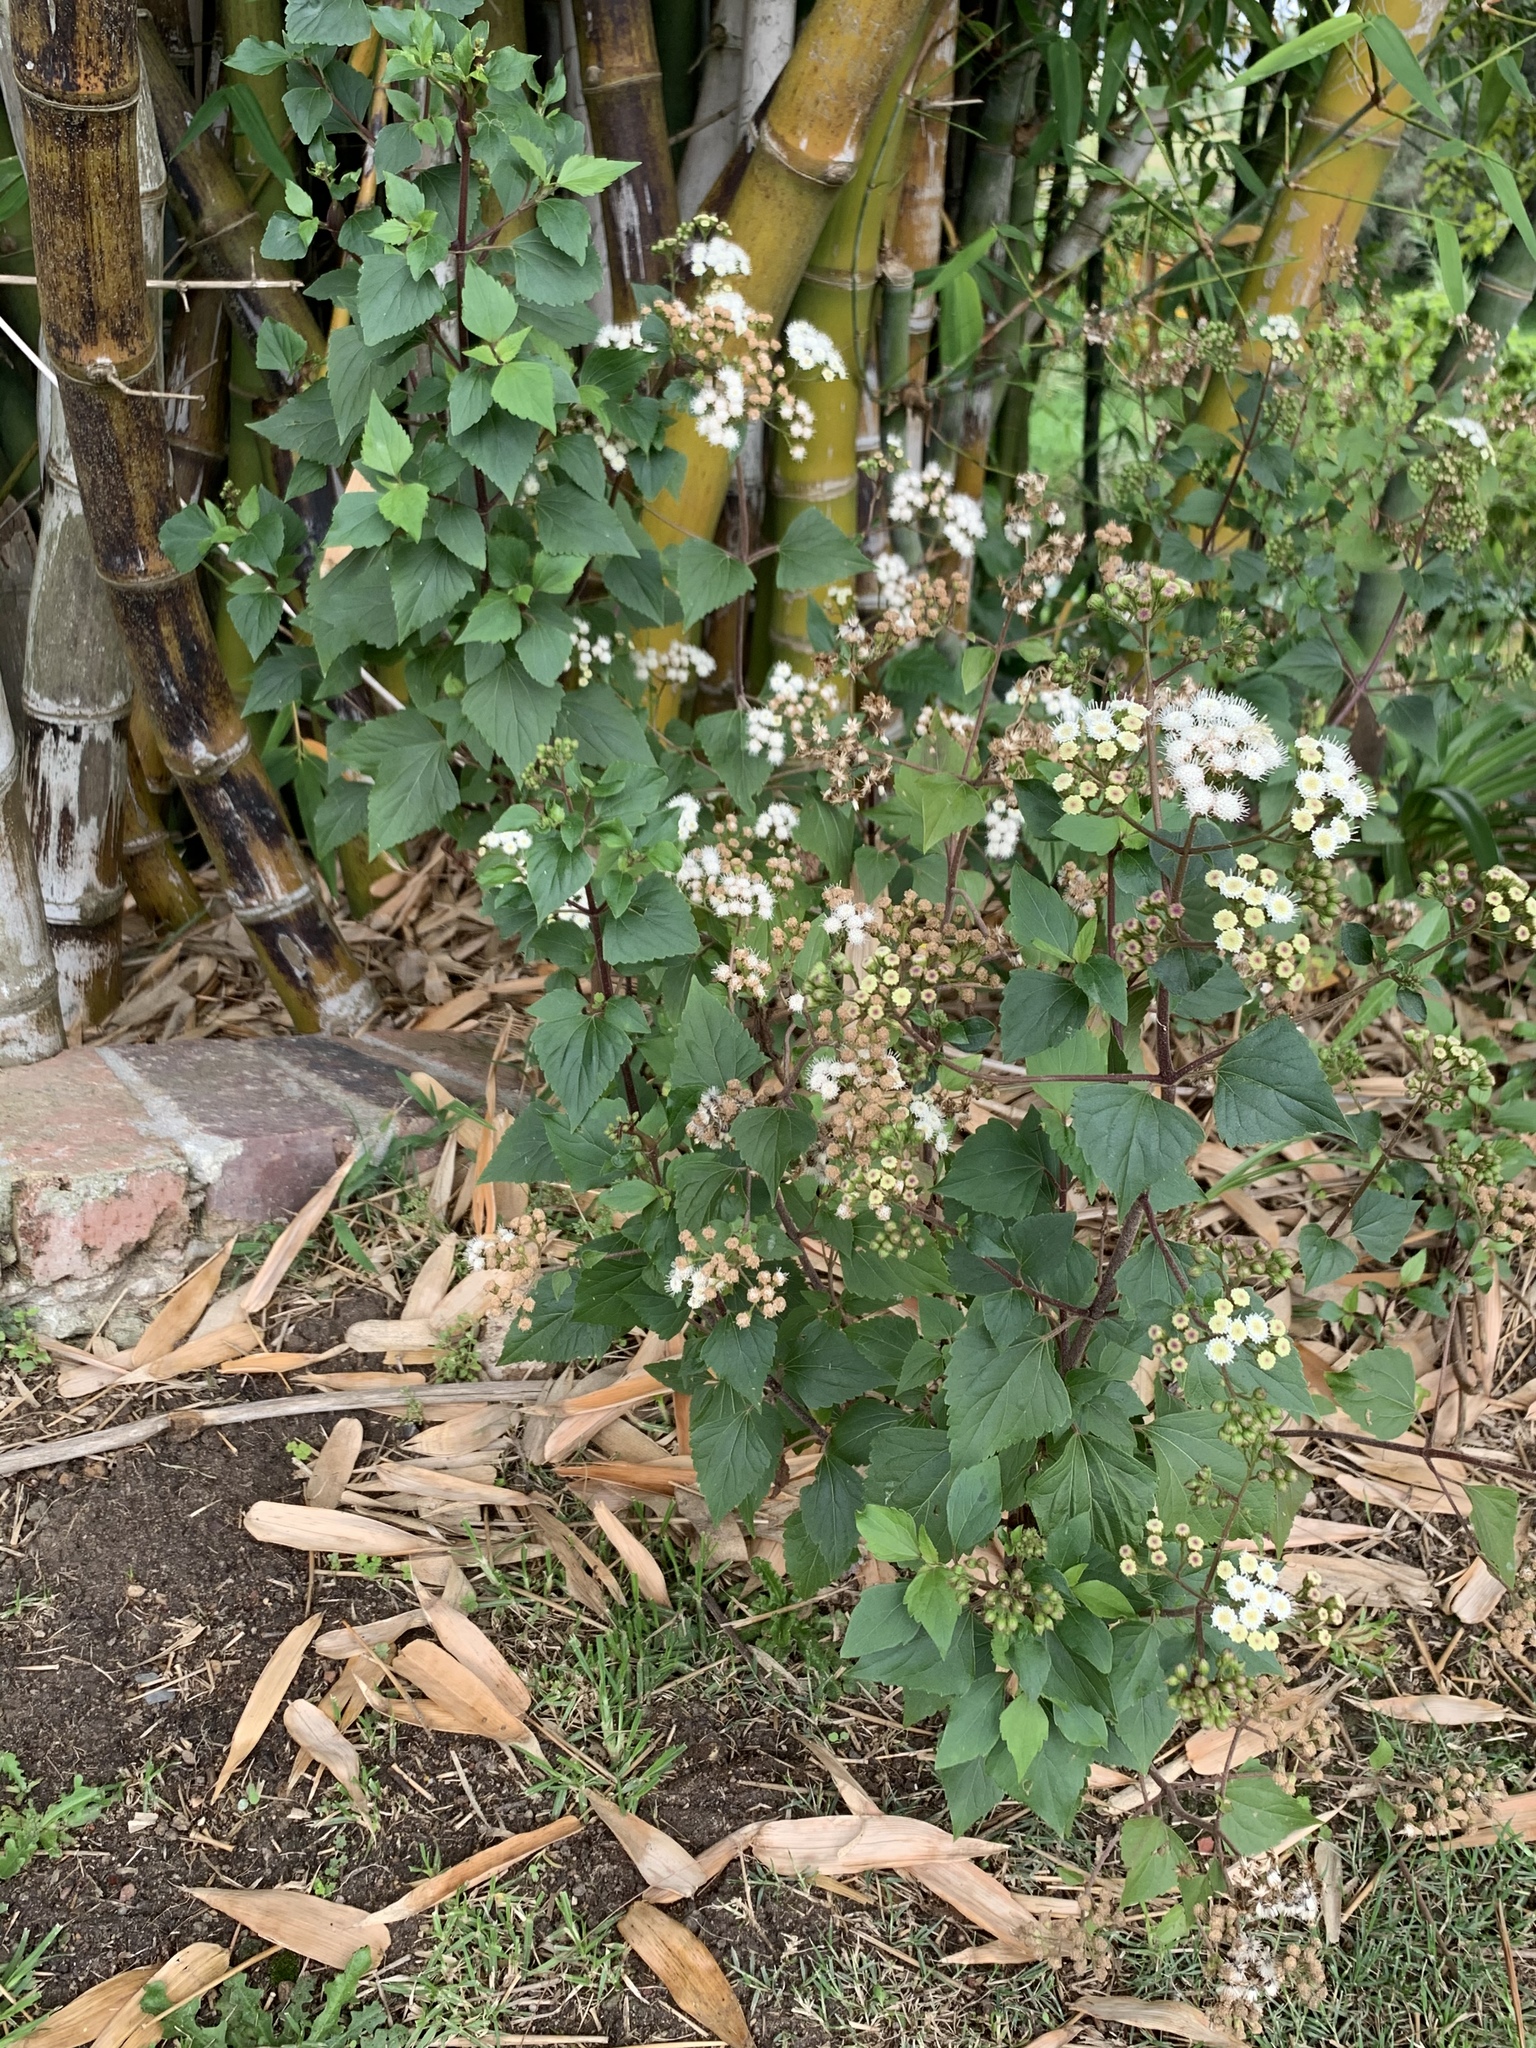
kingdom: Plantae
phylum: Tracheophyta
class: Magnoliopsida
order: Asterales
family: Asteraceae
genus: Ageratina
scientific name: Ageratina adenophora
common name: Sticky snakeroot
